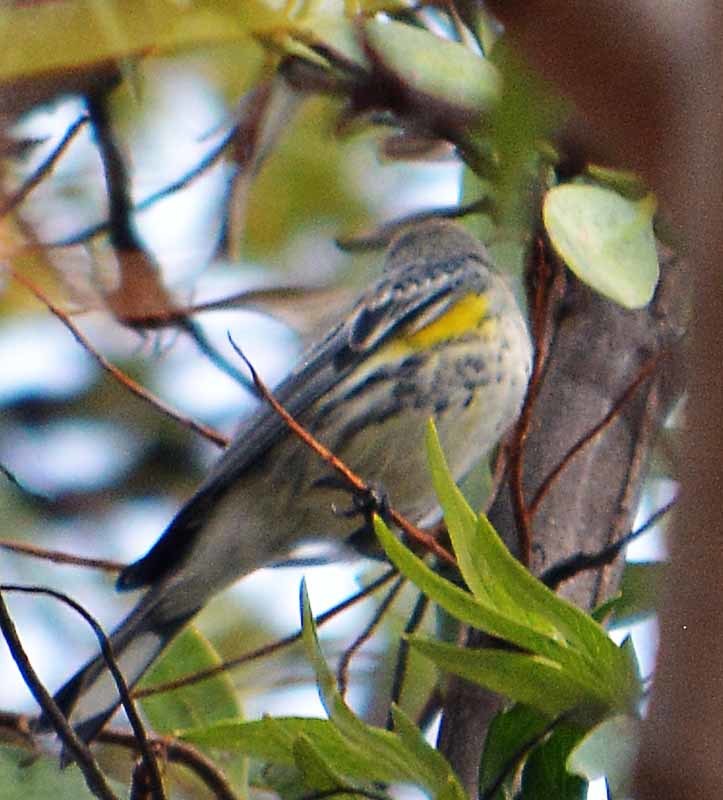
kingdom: Animalia
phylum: Chordata
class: Aves
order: Passeriformes
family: Parulidae
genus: Setophaga
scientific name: Setophaga coronata
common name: Myrtle warbler
